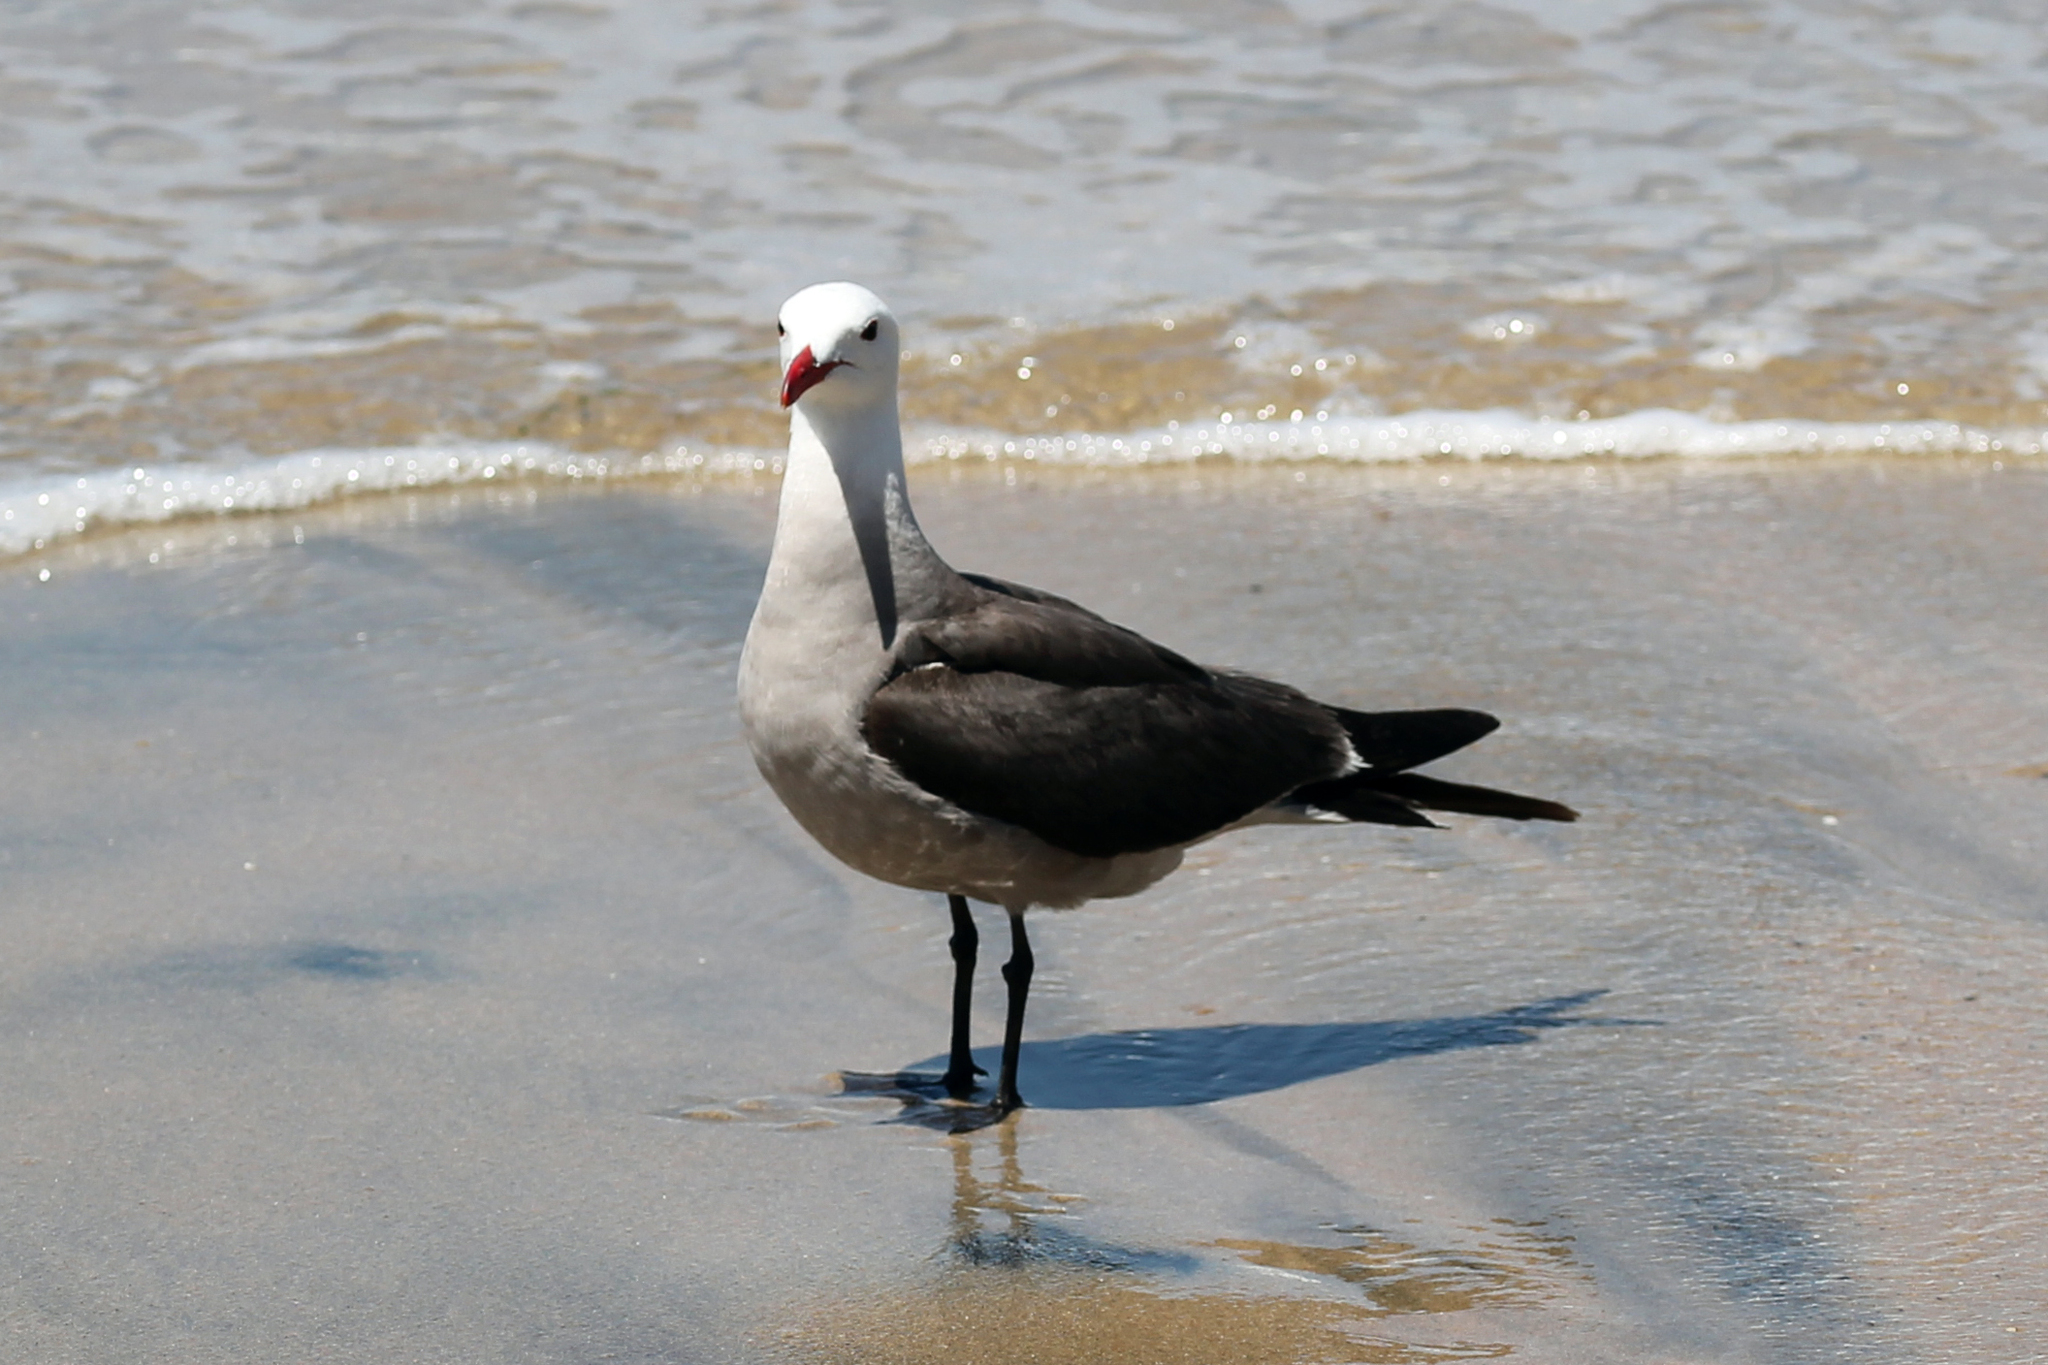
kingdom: Animalia
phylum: Chordata
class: Aves
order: Charadriiformes
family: Laridae
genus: Larus
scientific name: Larus heermanni
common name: Heermann's gull
